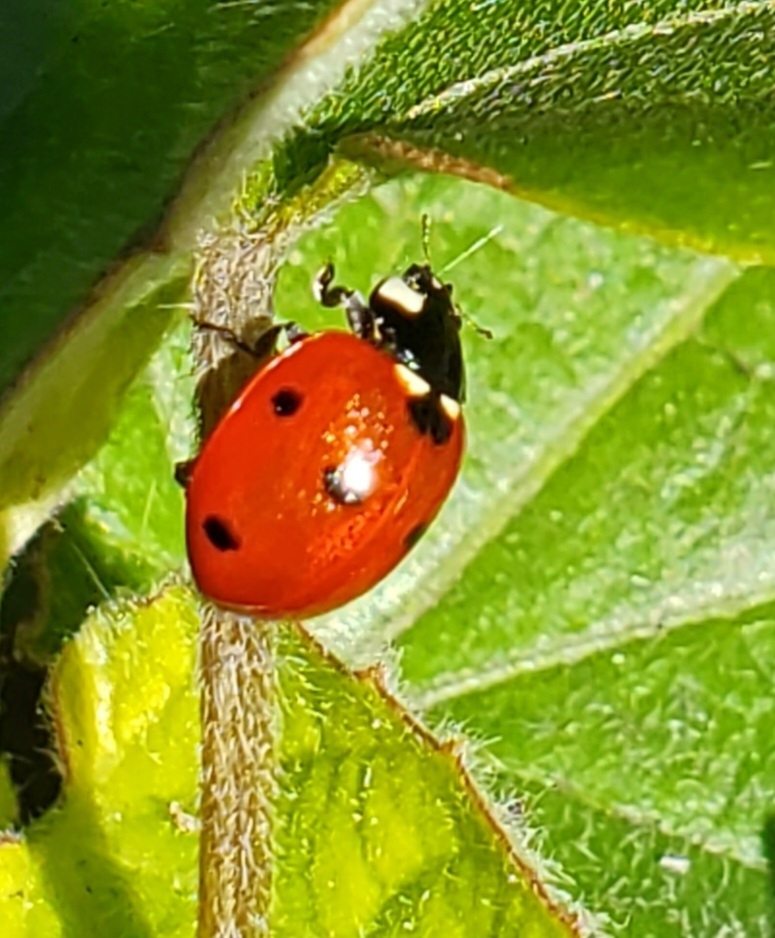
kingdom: Animalia
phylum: Arthropoda
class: Insecta
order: Coleoptera
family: Coccinellidae
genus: Coccinella
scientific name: Coccinella septempunctata
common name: Sevenspotted lady beetle
